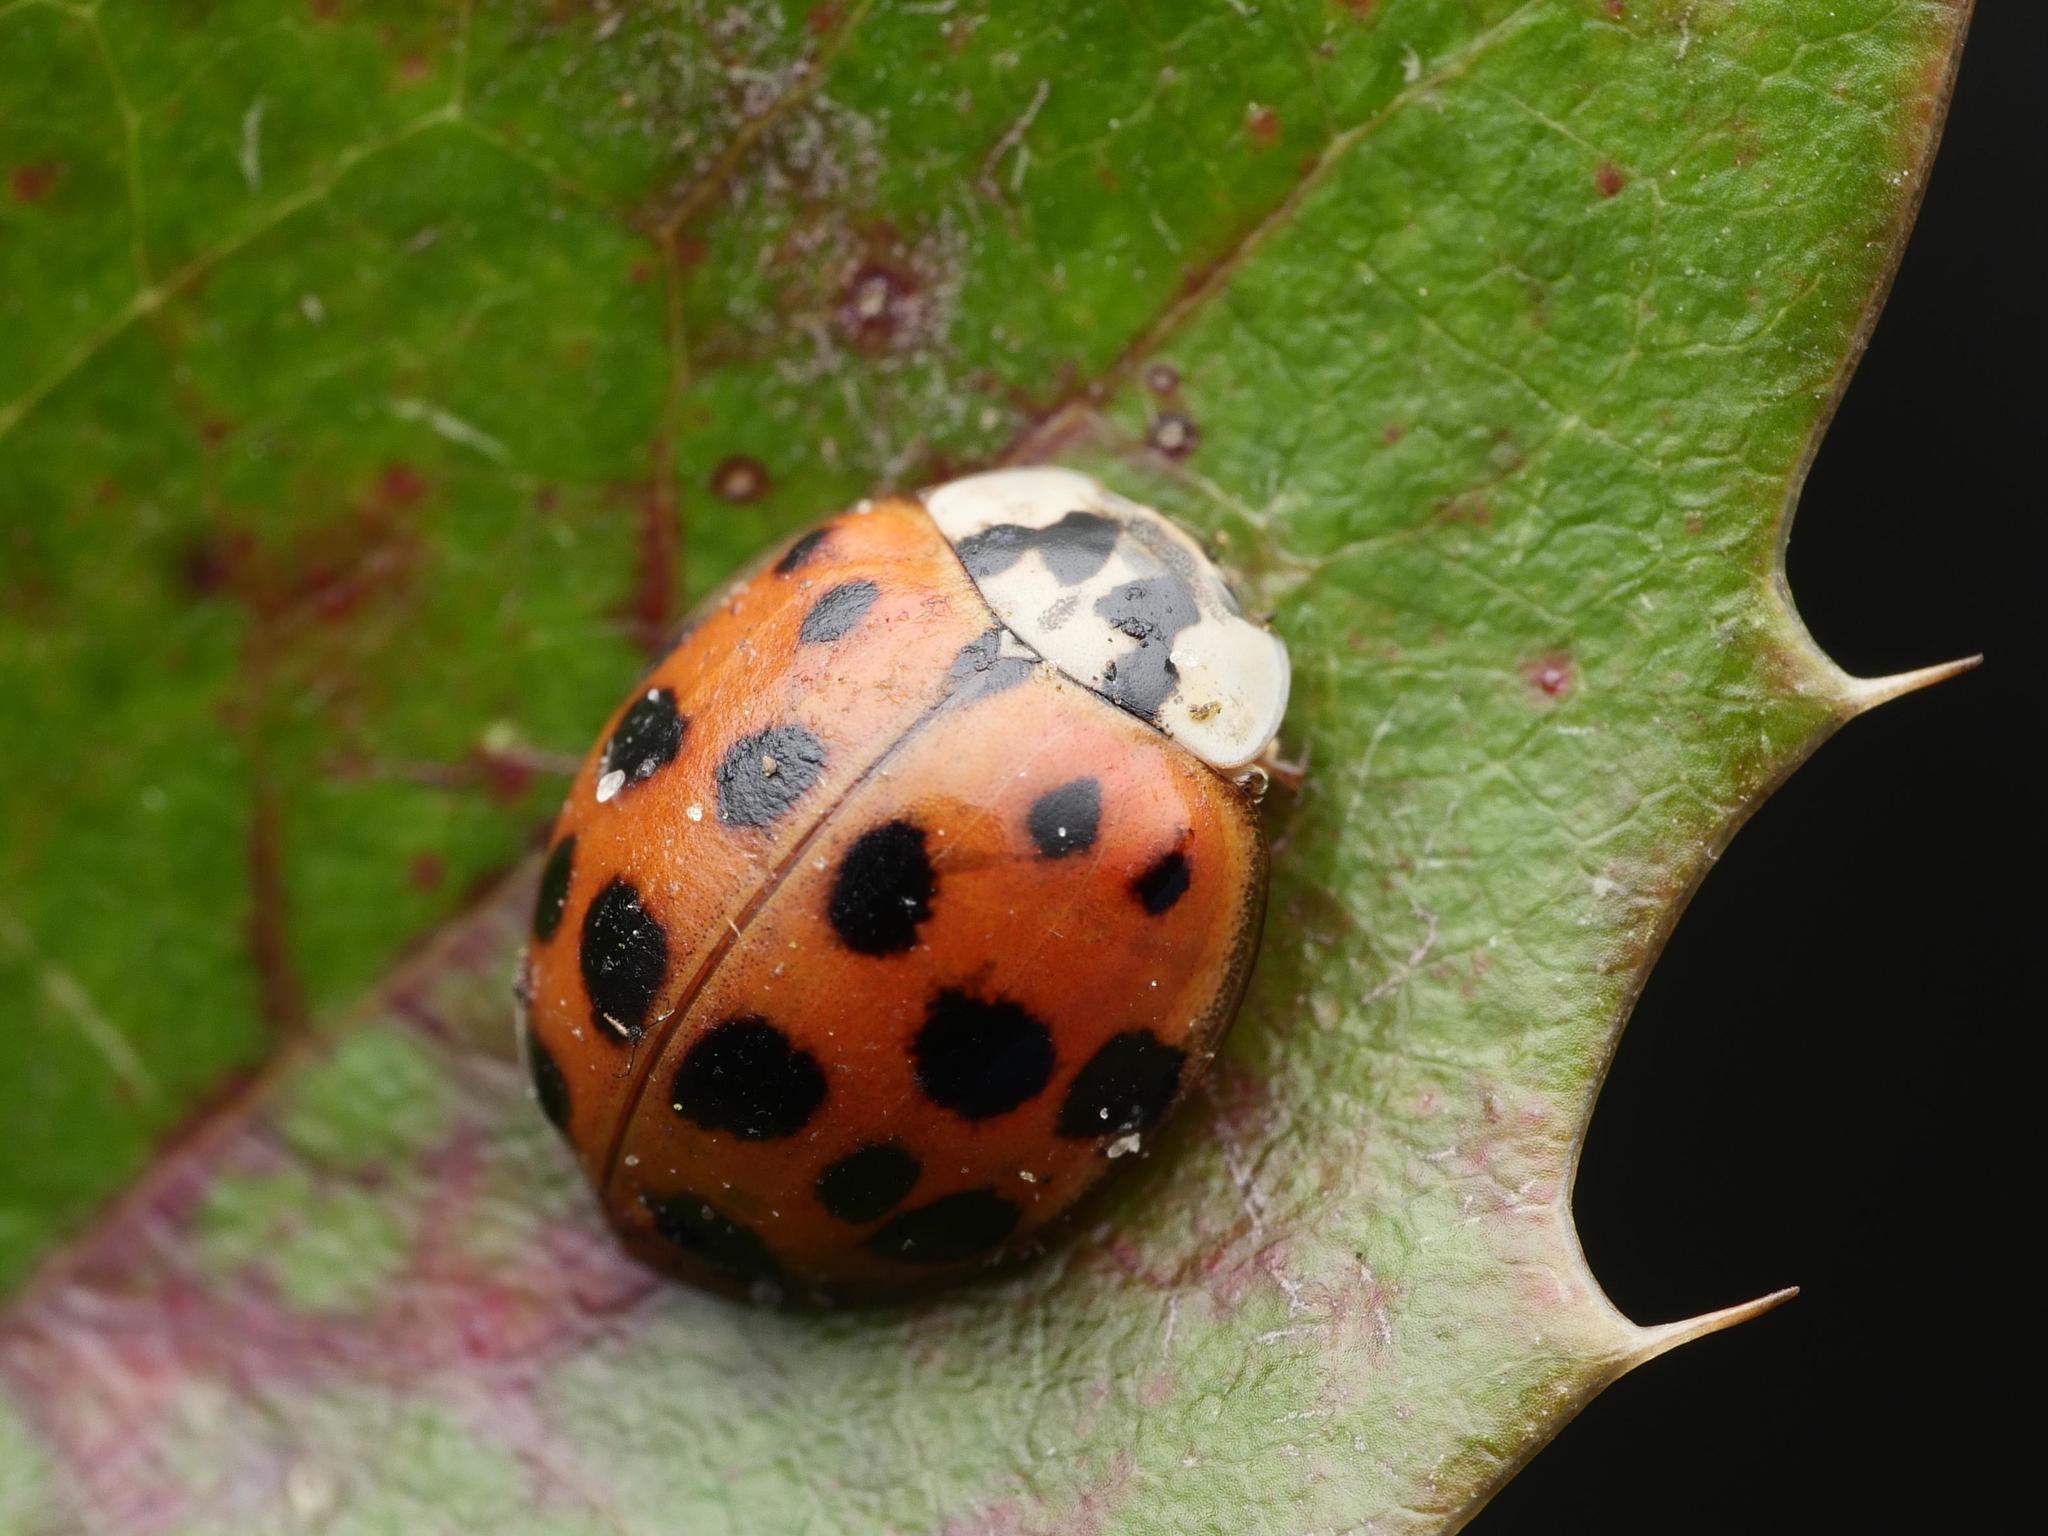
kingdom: Animalia
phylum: Arthropoda
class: Insecta
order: Coleoptera
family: Coccinellidae
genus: Harmonia
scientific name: Harmonia axyridis
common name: Harlequin ladybird
